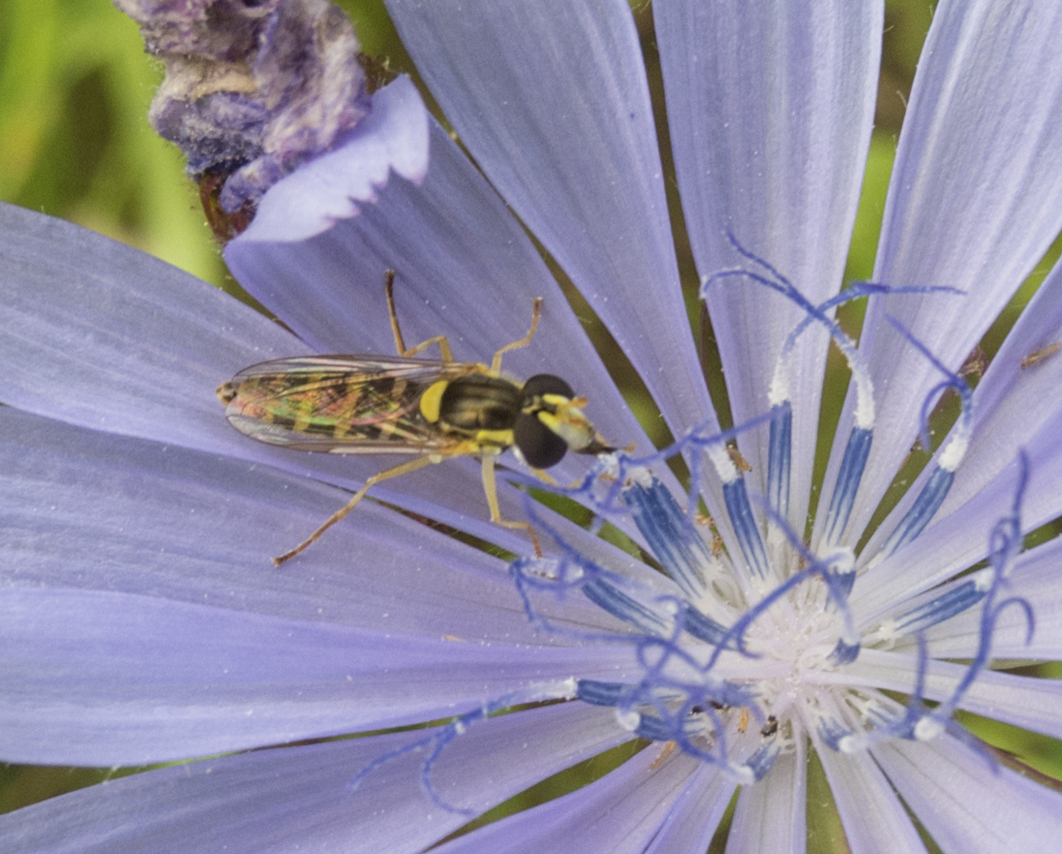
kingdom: Animalia
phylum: Arthropoda
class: Insecta
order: Diptera
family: Syrphidae
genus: Sphaerophoria
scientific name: Sphaerophoria
